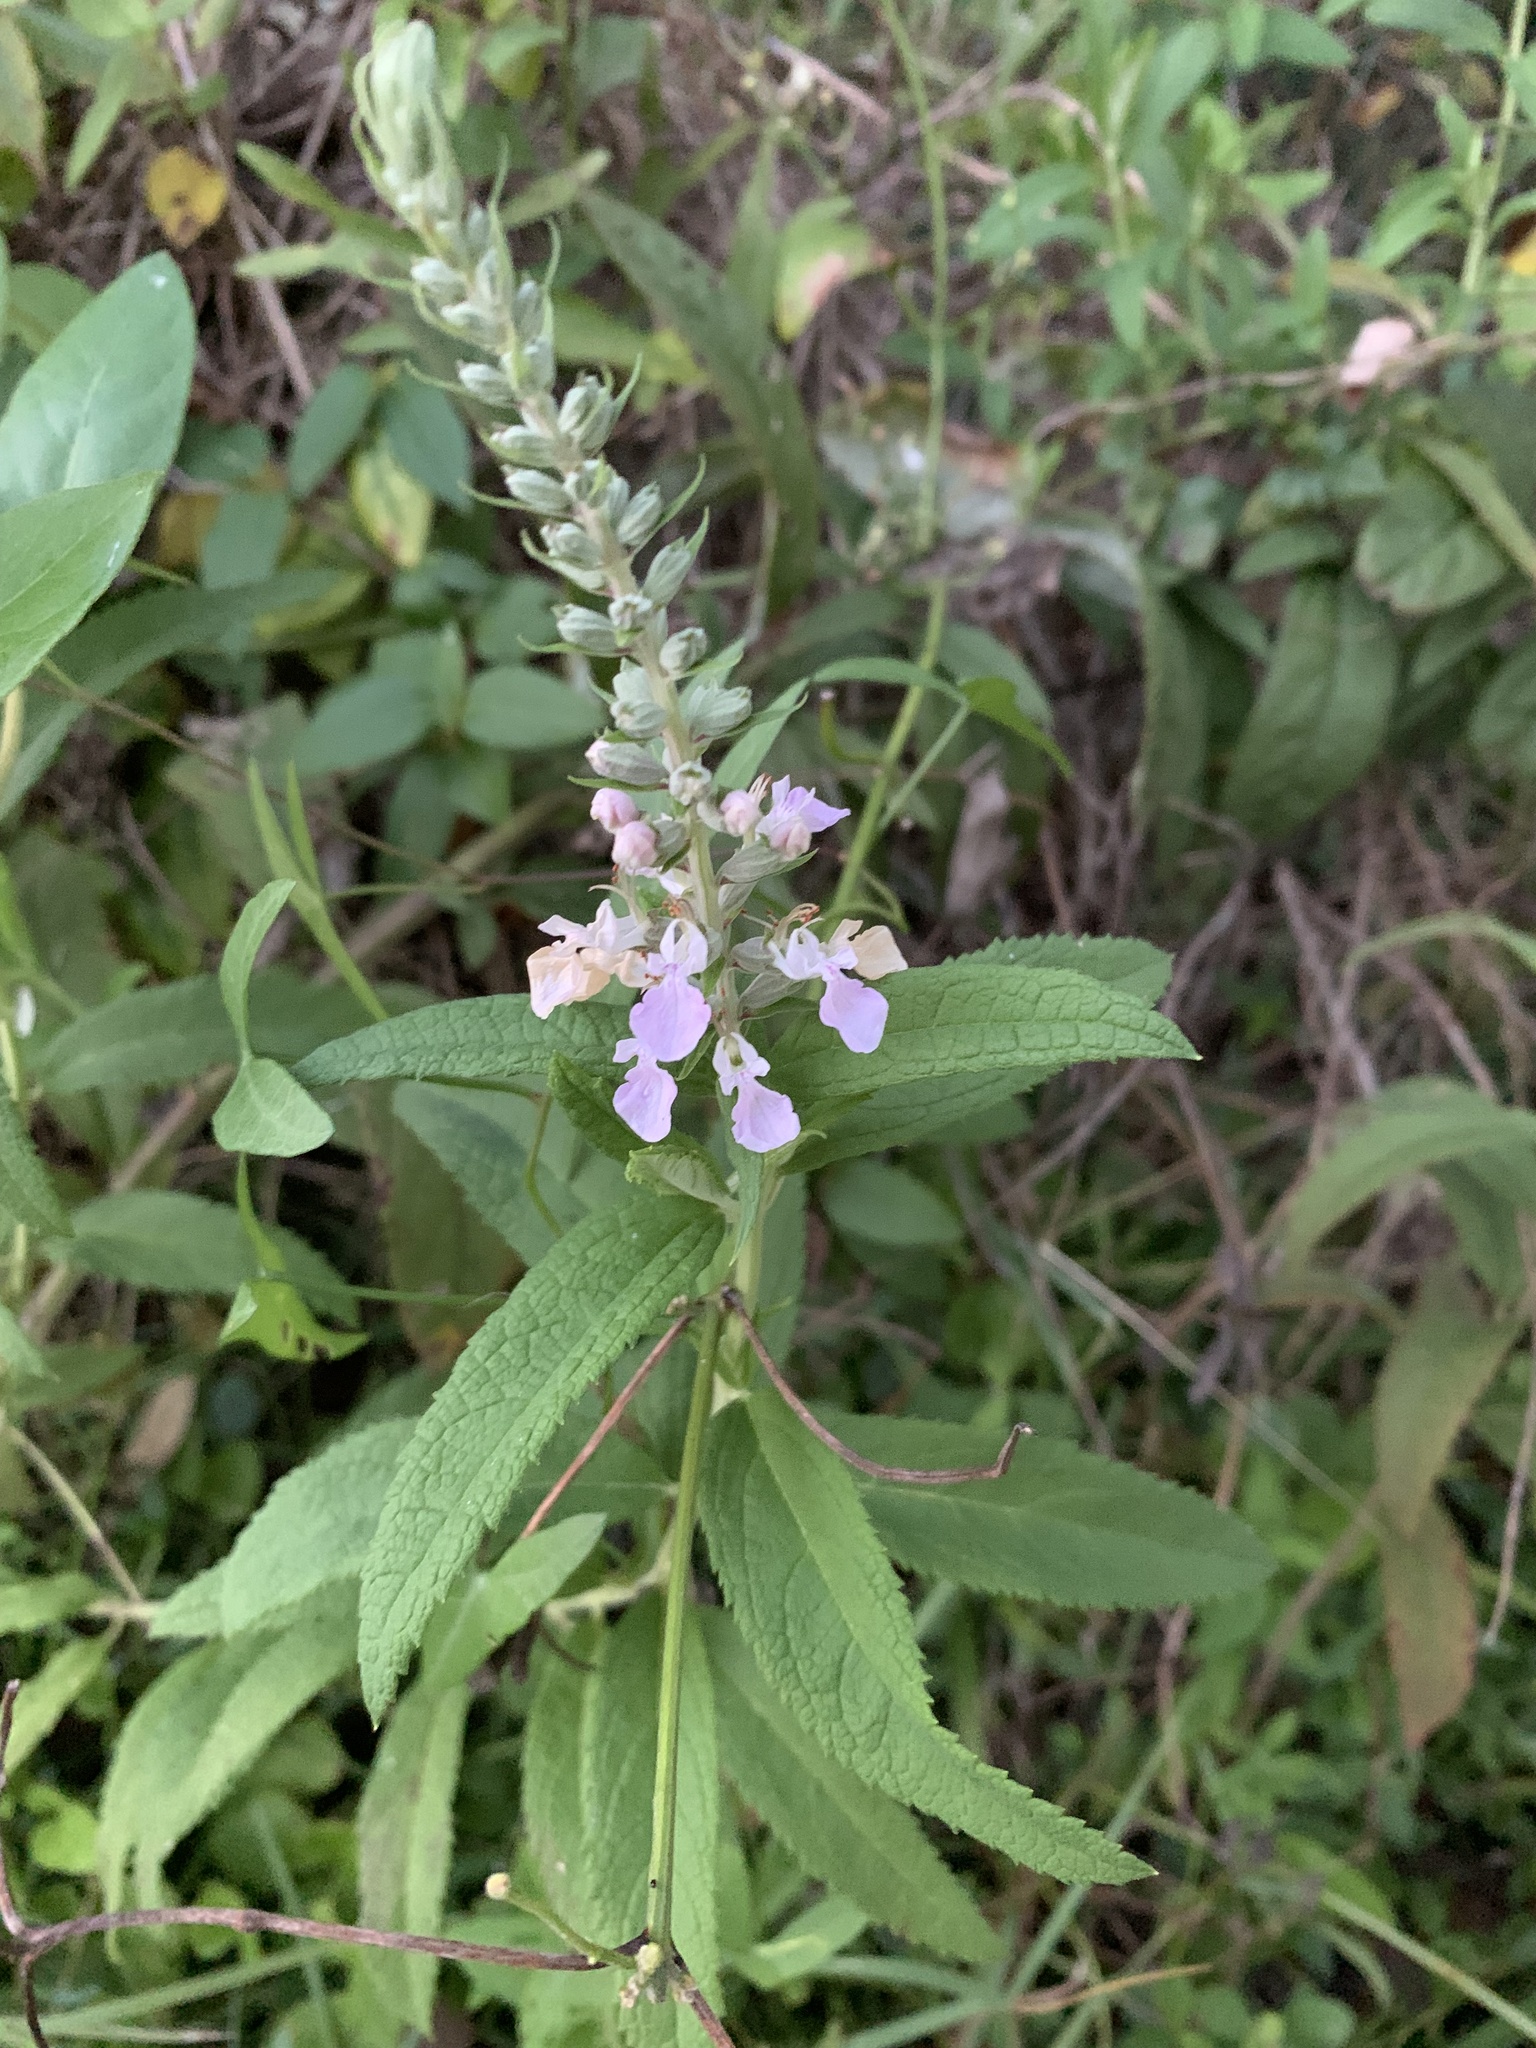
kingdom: Plantae
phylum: Tracheophyta
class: Magnoliopsida
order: Lamiales
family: Lamiaceae
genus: Teucrium
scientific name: Teucrium canadense
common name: American germander
